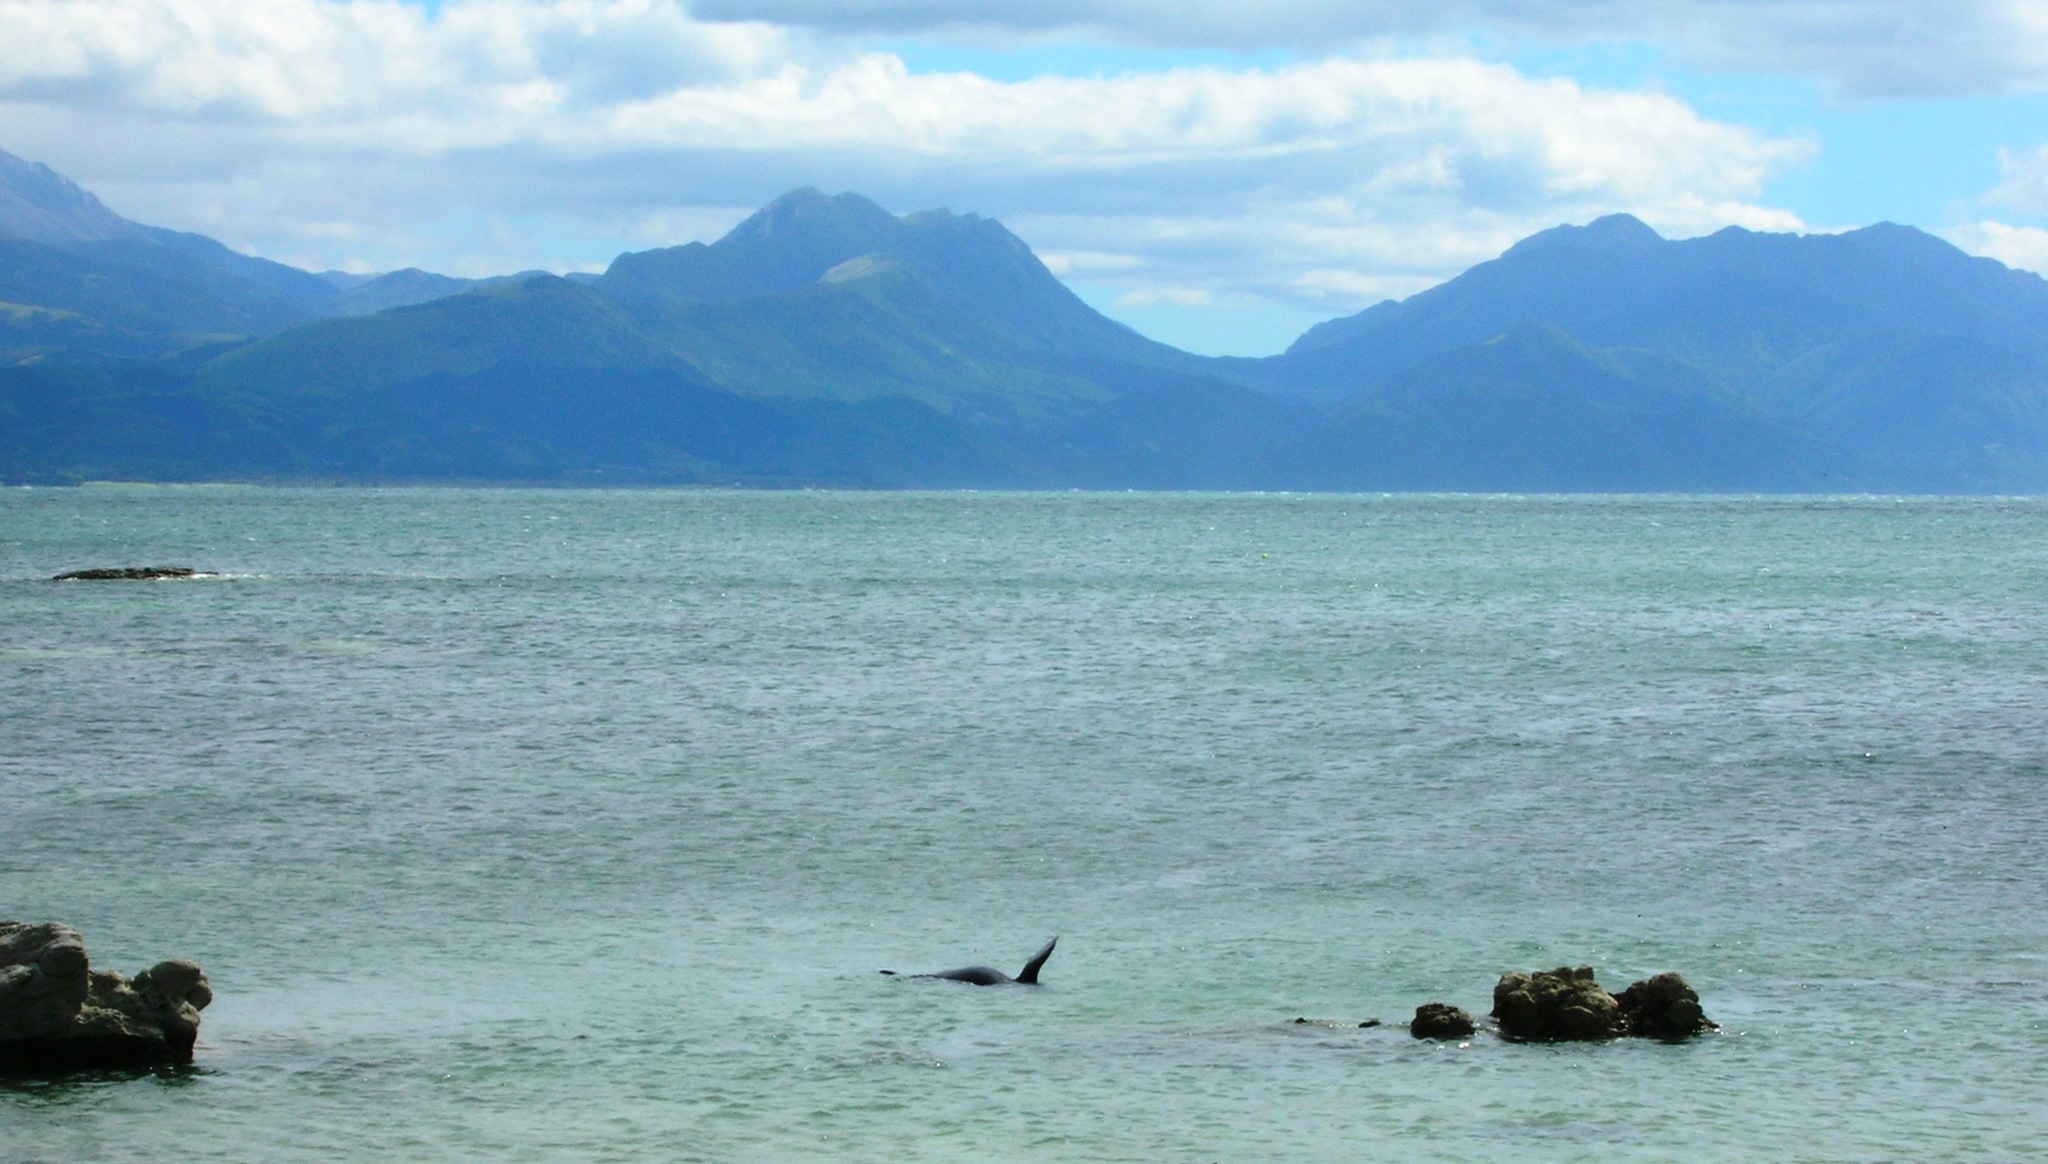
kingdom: Animalia
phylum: Chordata
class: Mammalia
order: Carnivora
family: Otariidae
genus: Arctocephalus
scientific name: Arctocephalus forsteri
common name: New zealand fur seal
